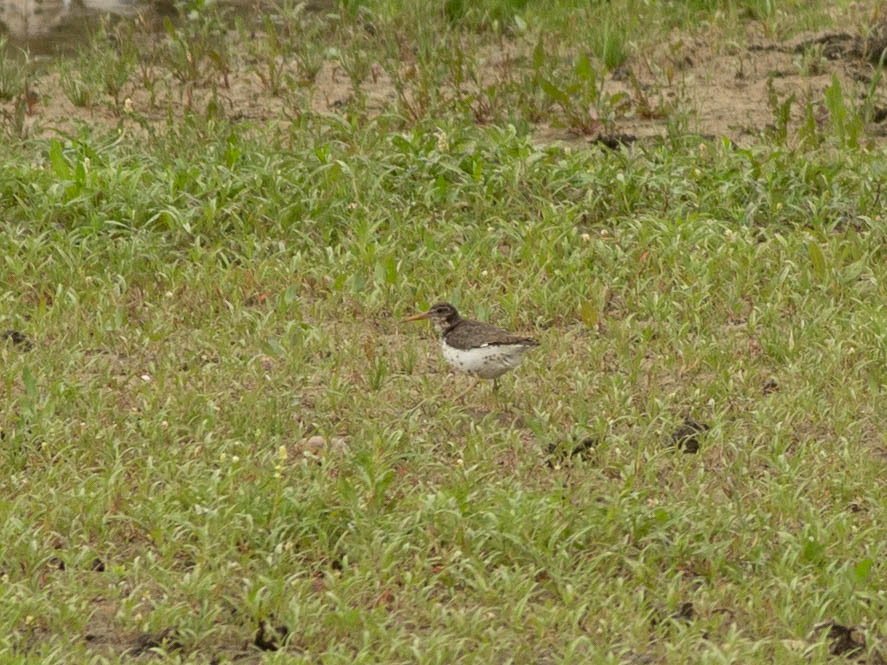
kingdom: Animalia
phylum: Chordata
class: Aves
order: Charadriiformes
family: Scolopacidae
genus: Actitis
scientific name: Actitis macularius
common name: Spotted sandpiper
